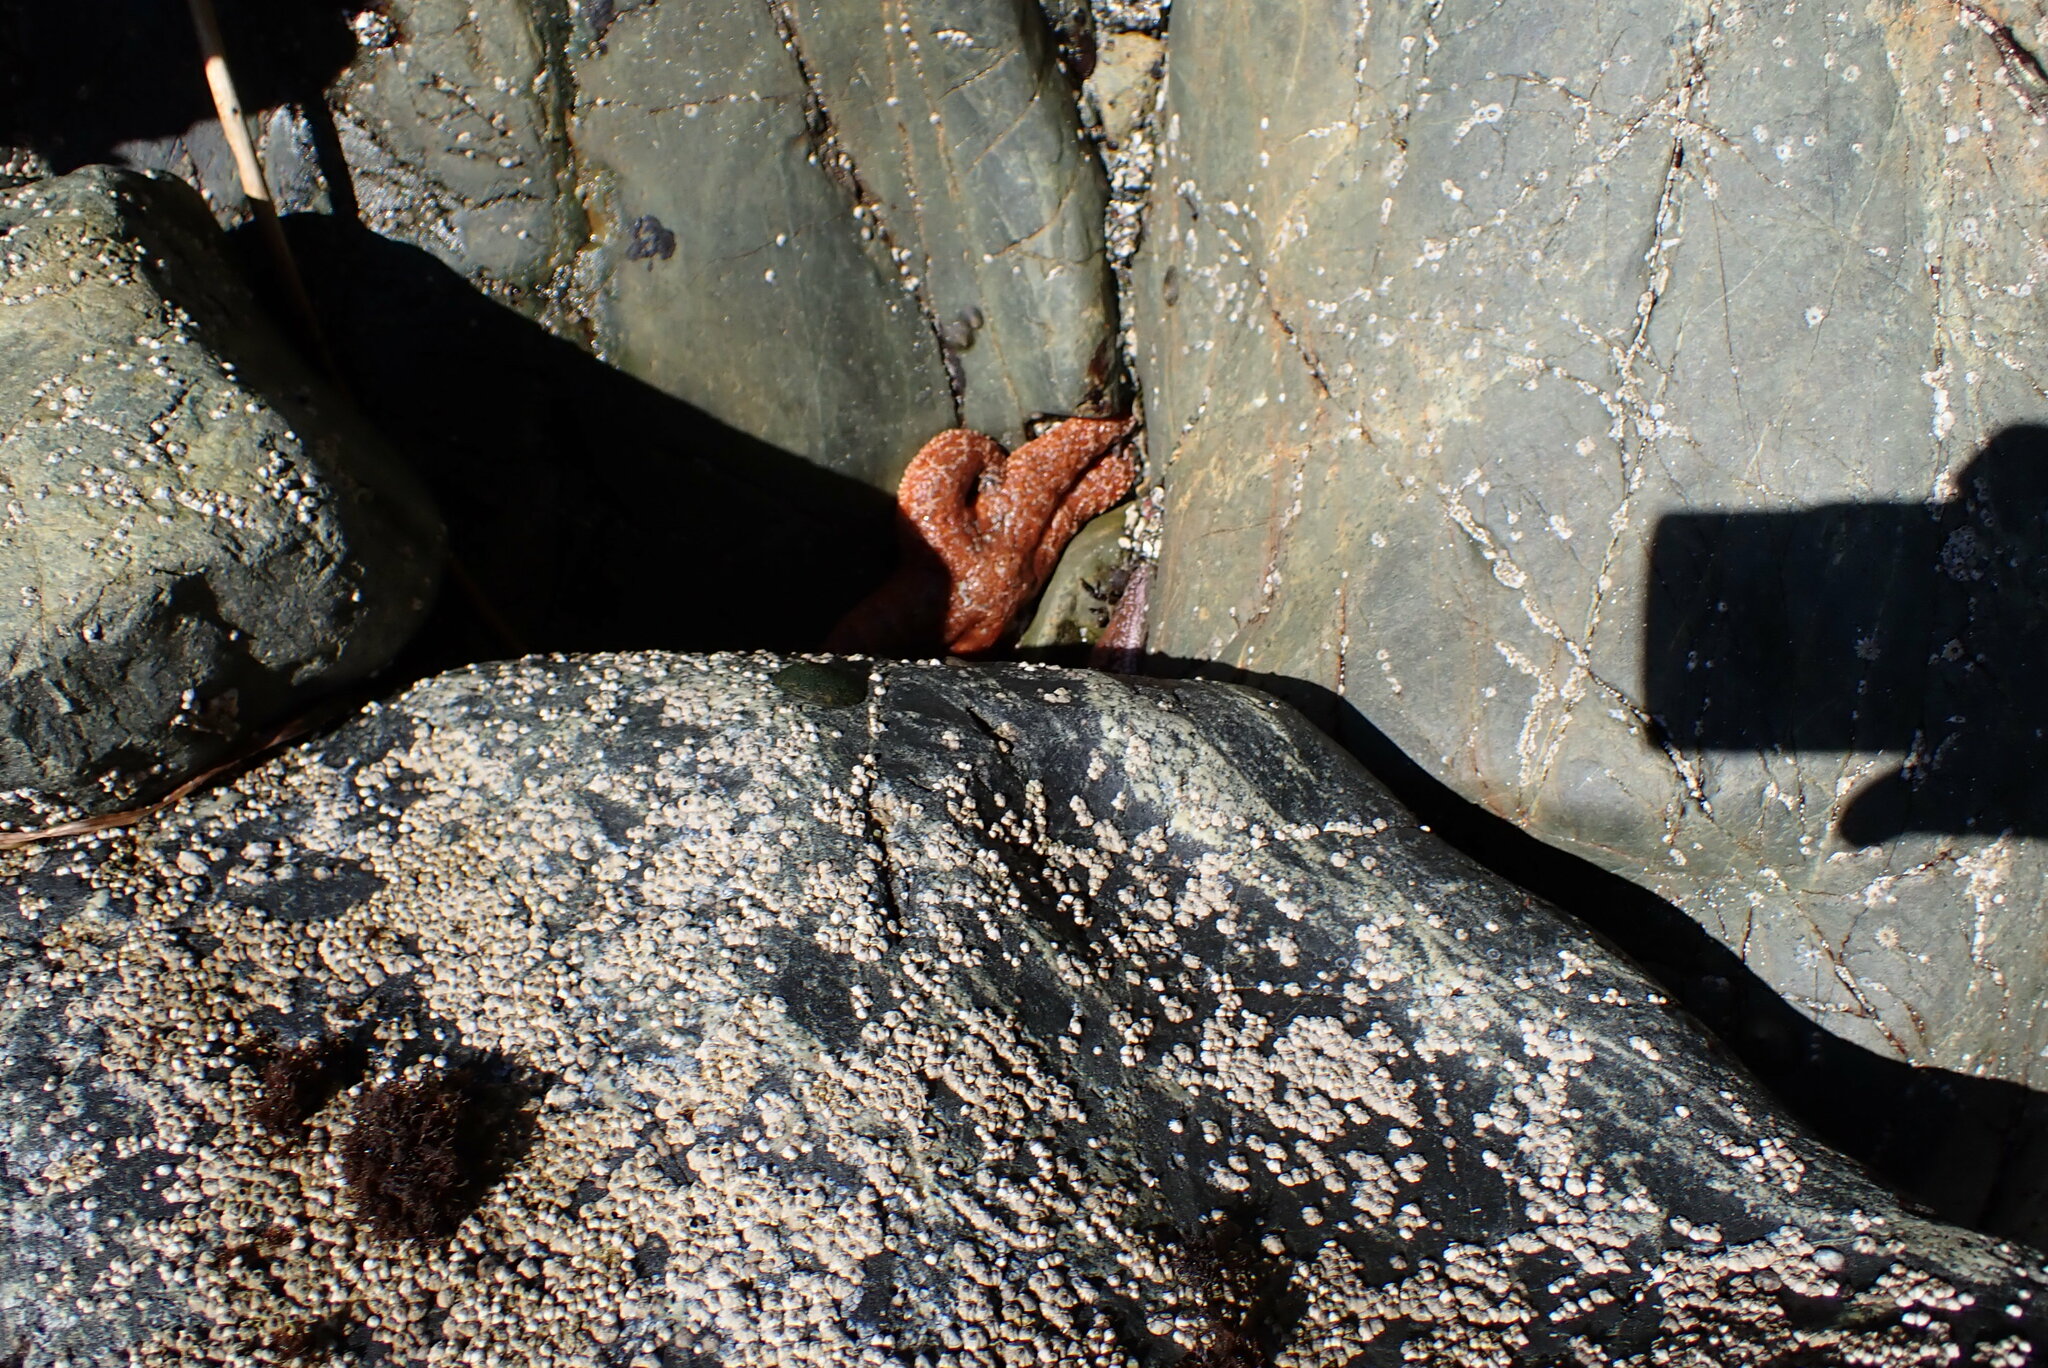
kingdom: Animalia
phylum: Echinodermata
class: Asteroidea
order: Forcipulatida
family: Asteriidae
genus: Pisaster
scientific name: Pisaster ochraceus
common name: Ochre stars
